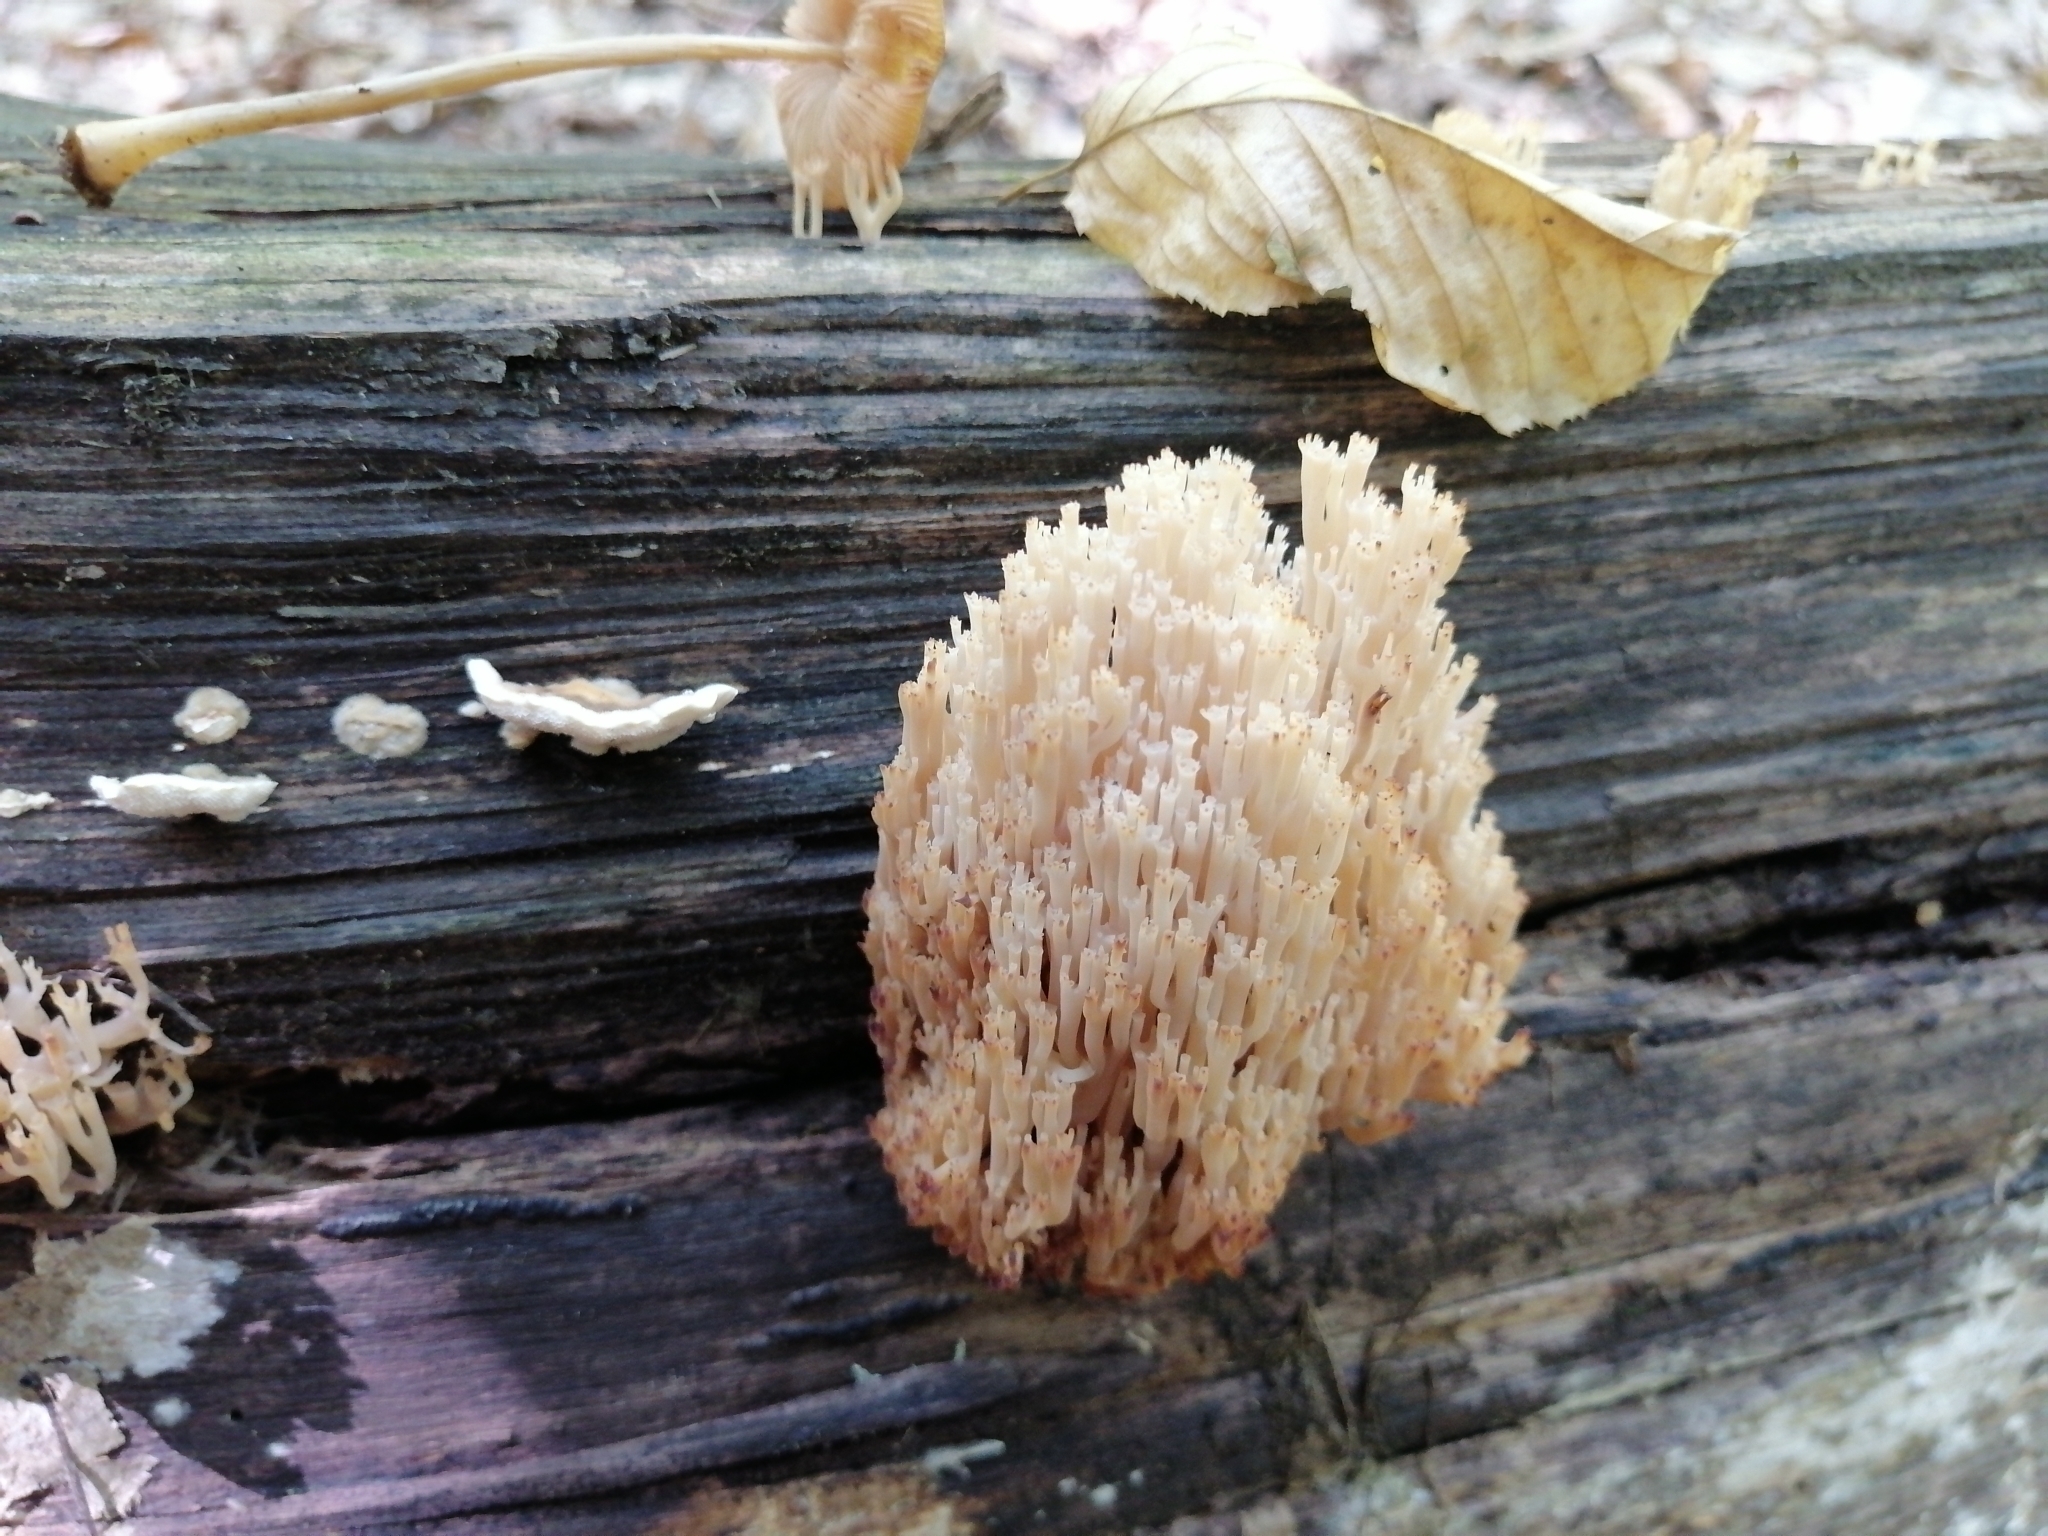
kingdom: Fungi
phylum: Basidiomycota
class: Agaricomycetes
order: Russulales
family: Auriscalpiaceae
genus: Artomyces
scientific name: Artomyces pyxidatus
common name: Crown-tipped coral fungus
